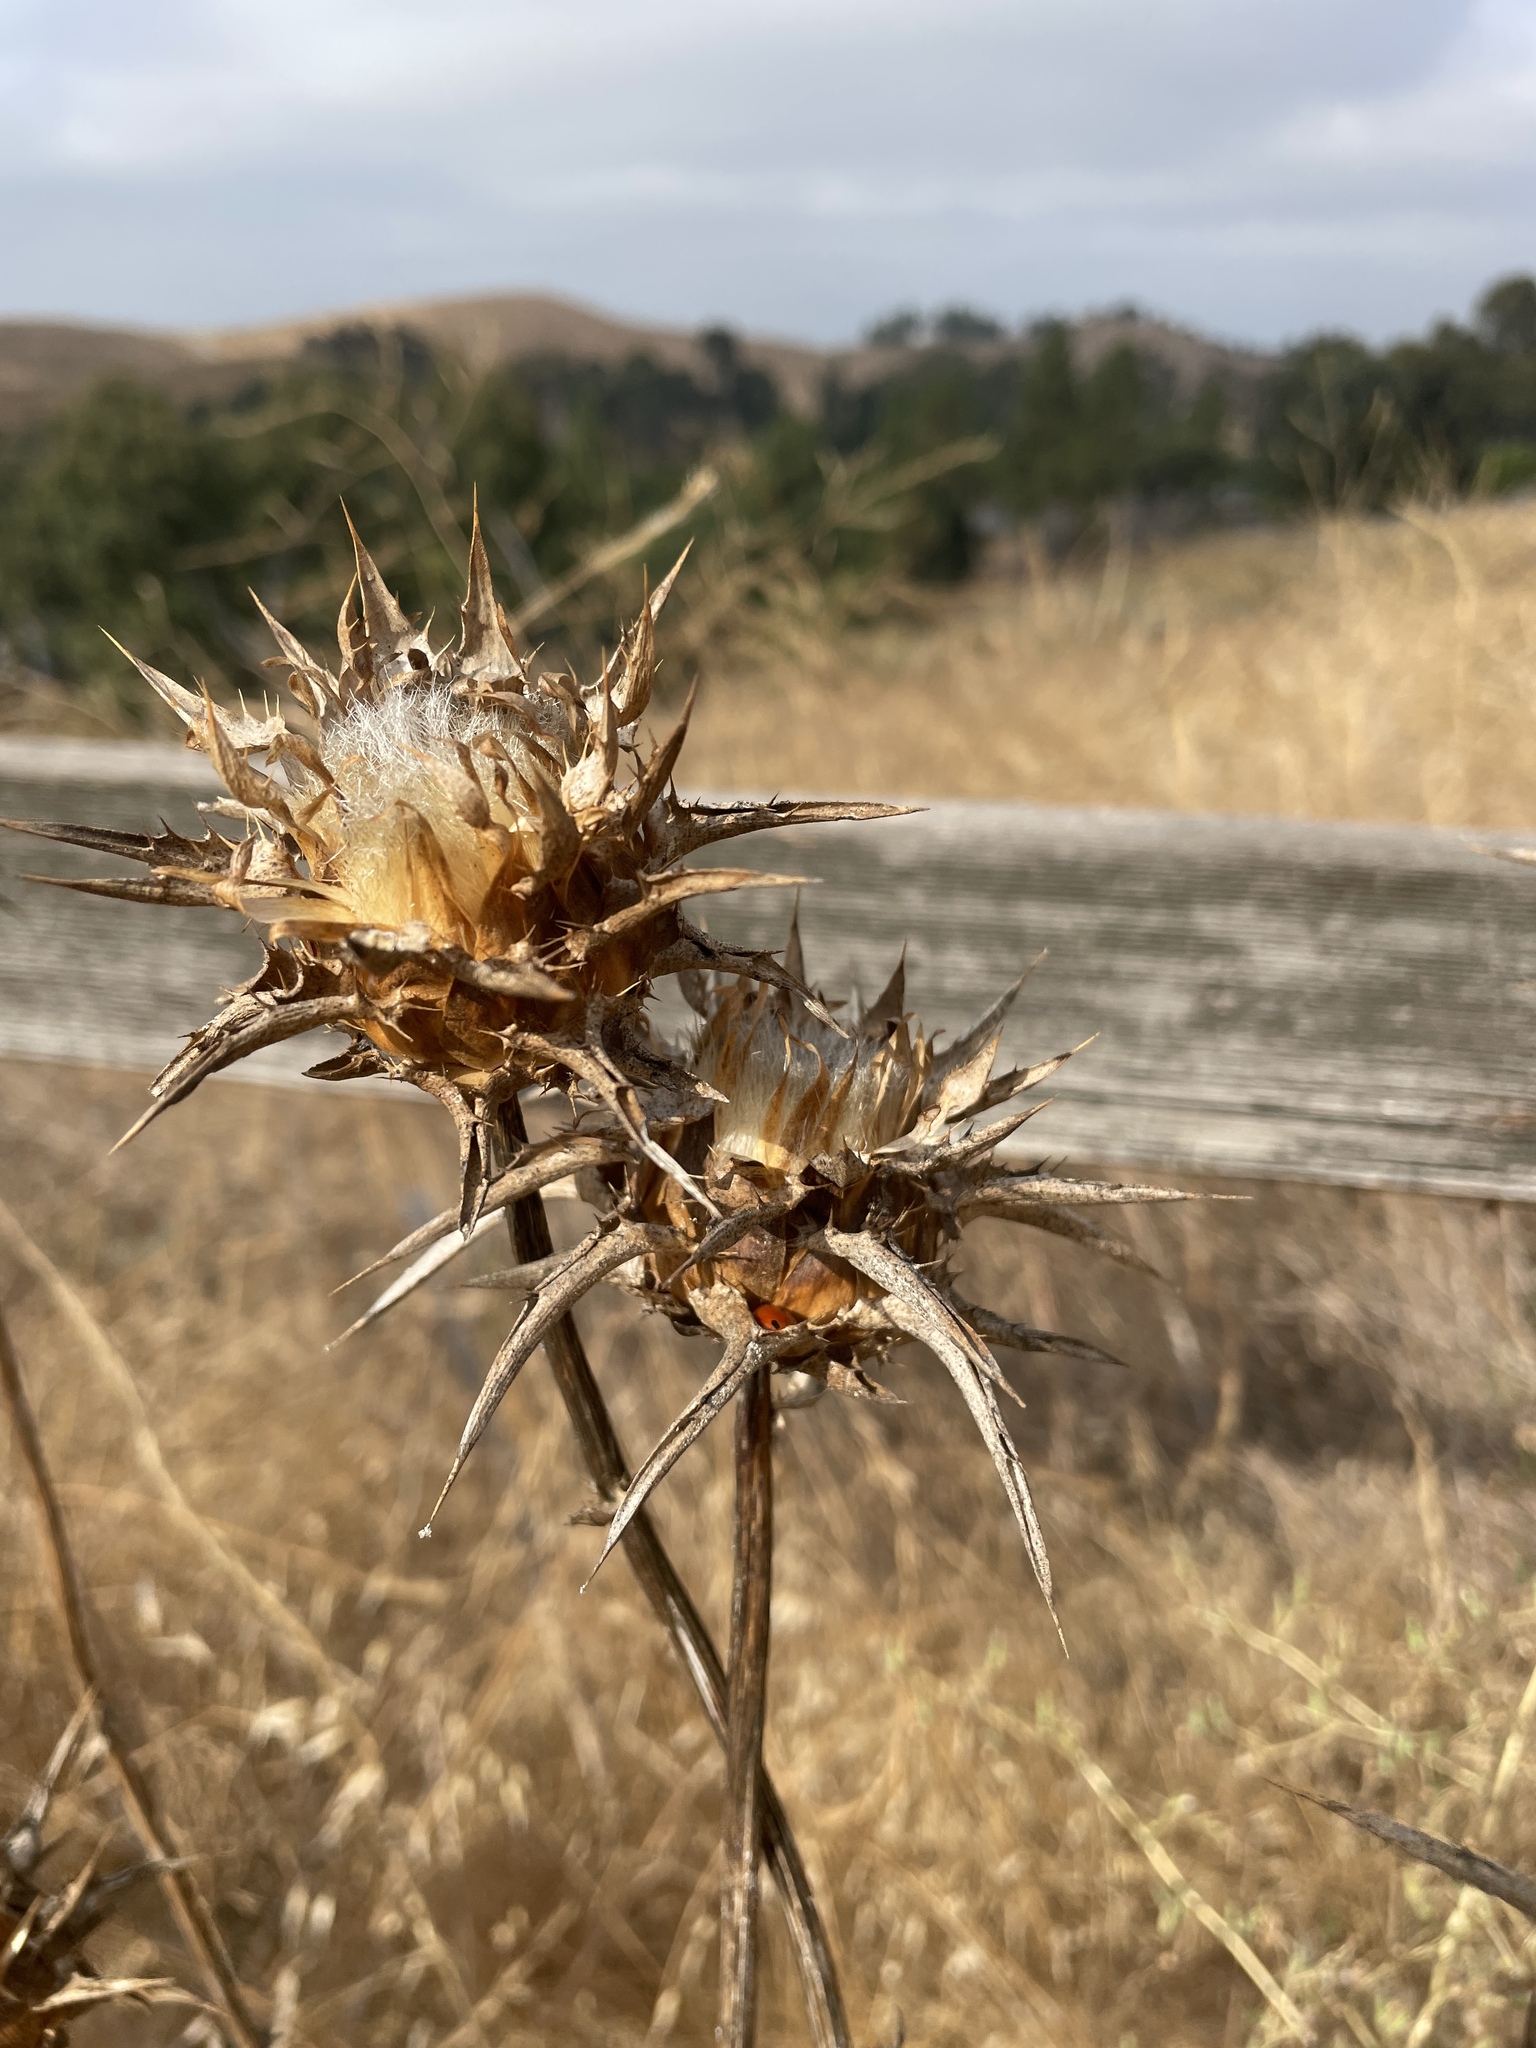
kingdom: Plantae
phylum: Tracheophyta
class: Magnoliopsida
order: Asterales
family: Asteraceae
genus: Silybum
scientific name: Silybum marianum
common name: Milk thistle
